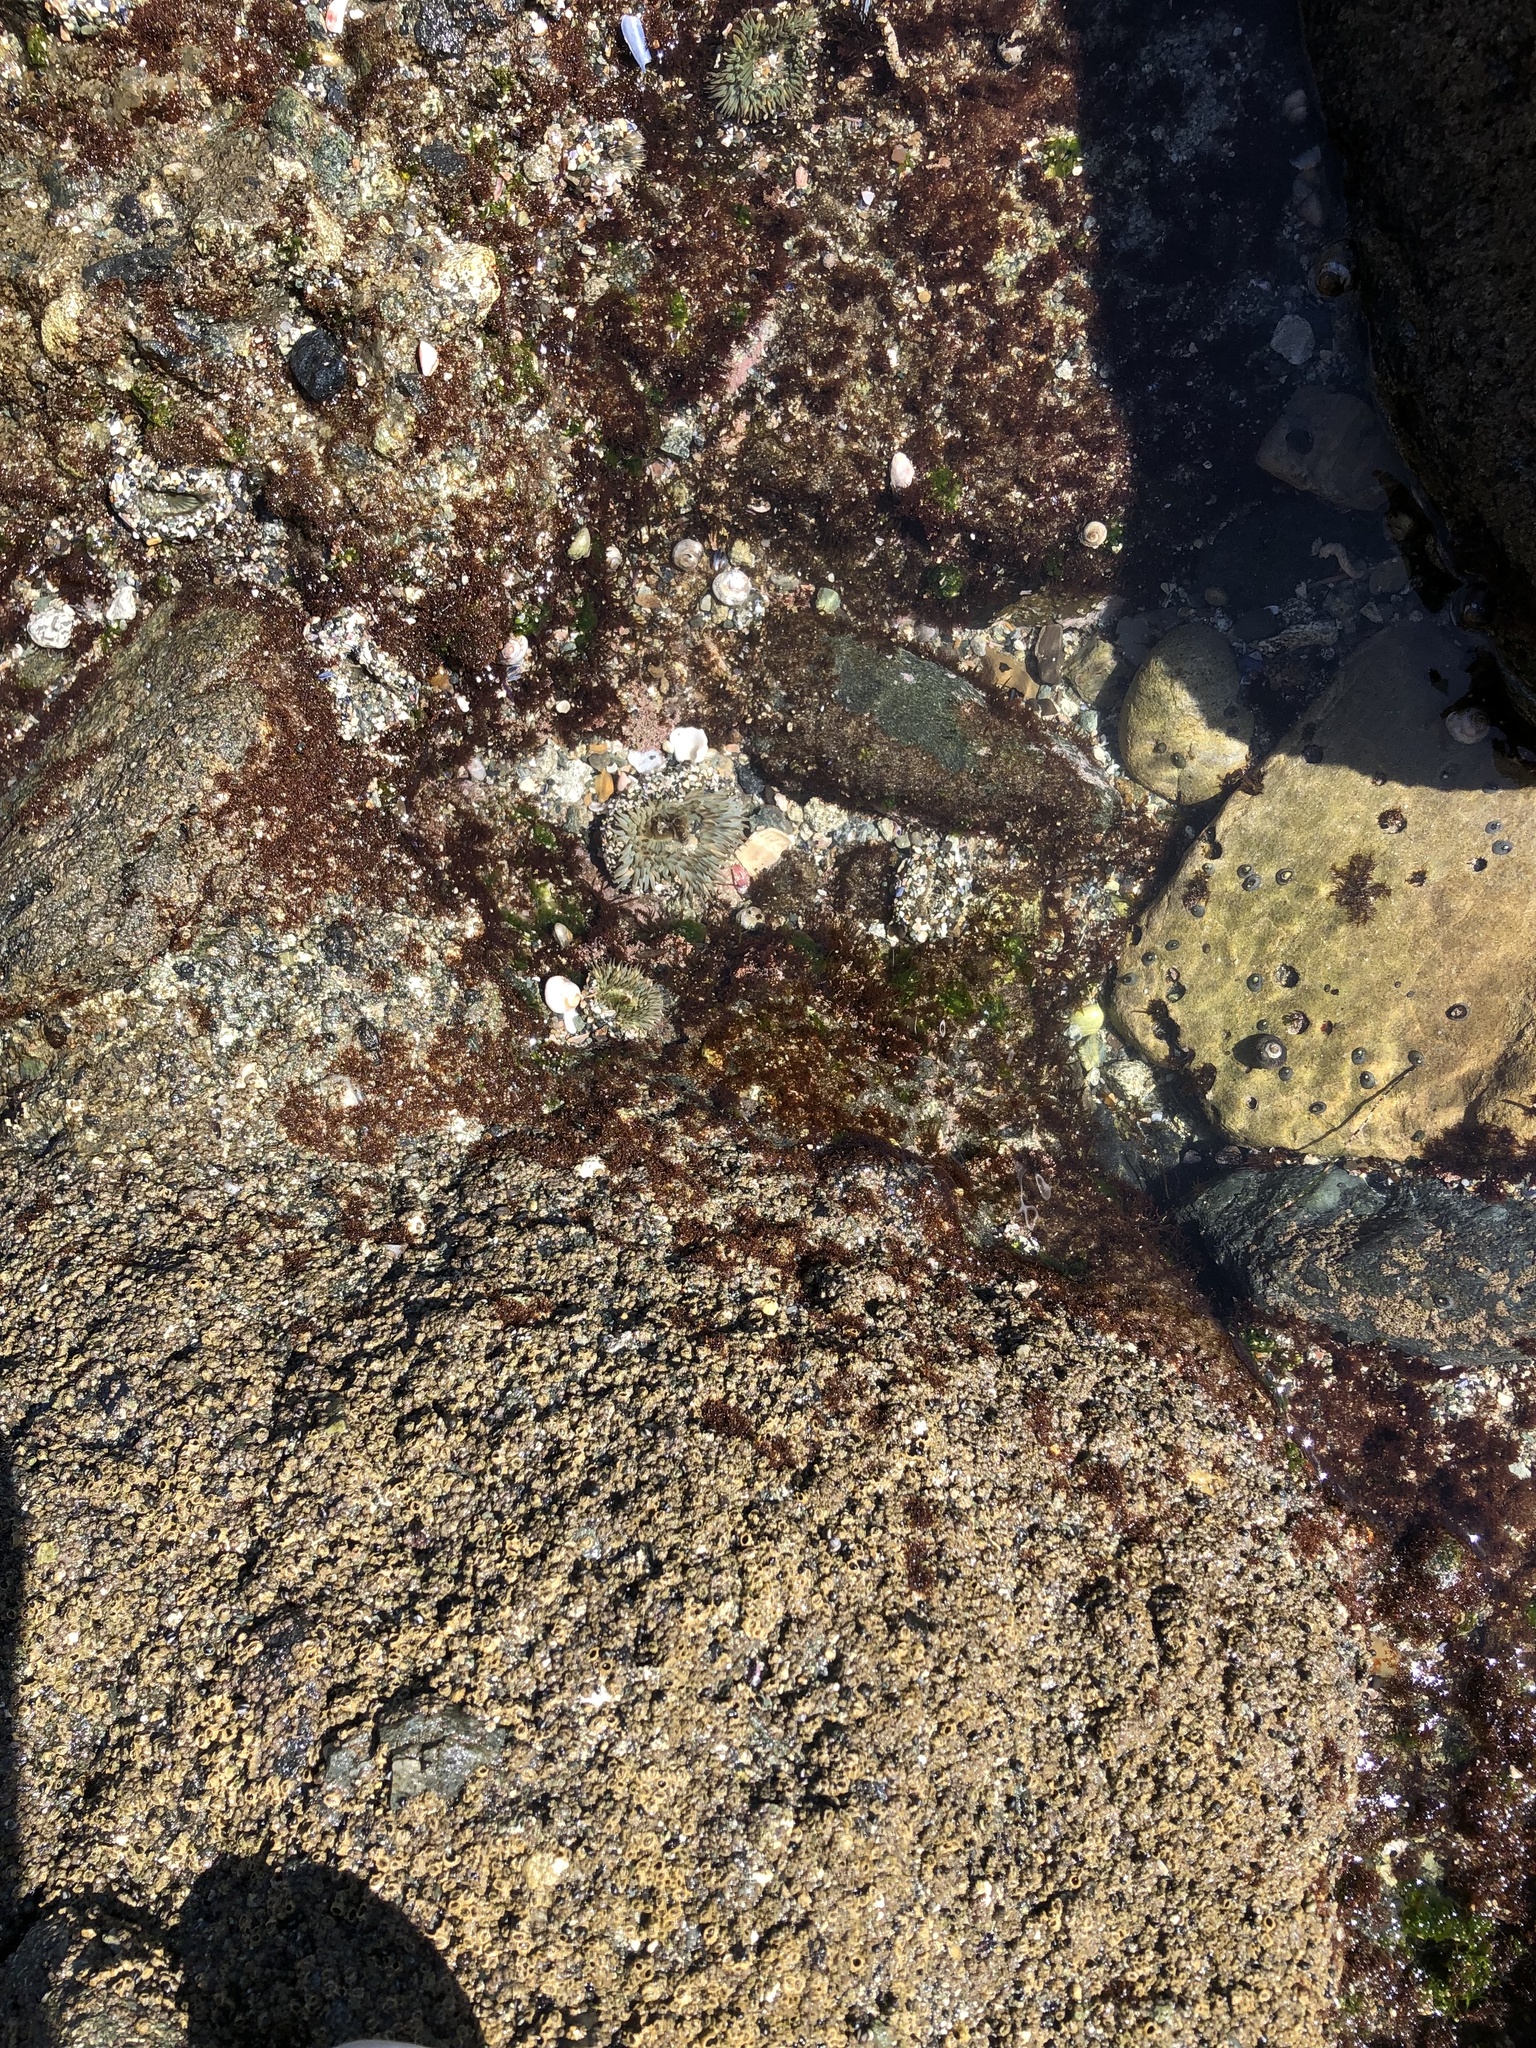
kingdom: Animalia
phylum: Cnidaria
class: Anthozoa
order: Actiniaria
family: Actiniidae
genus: Anthopleura
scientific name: Anthopleura sola
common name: Sun anemone
